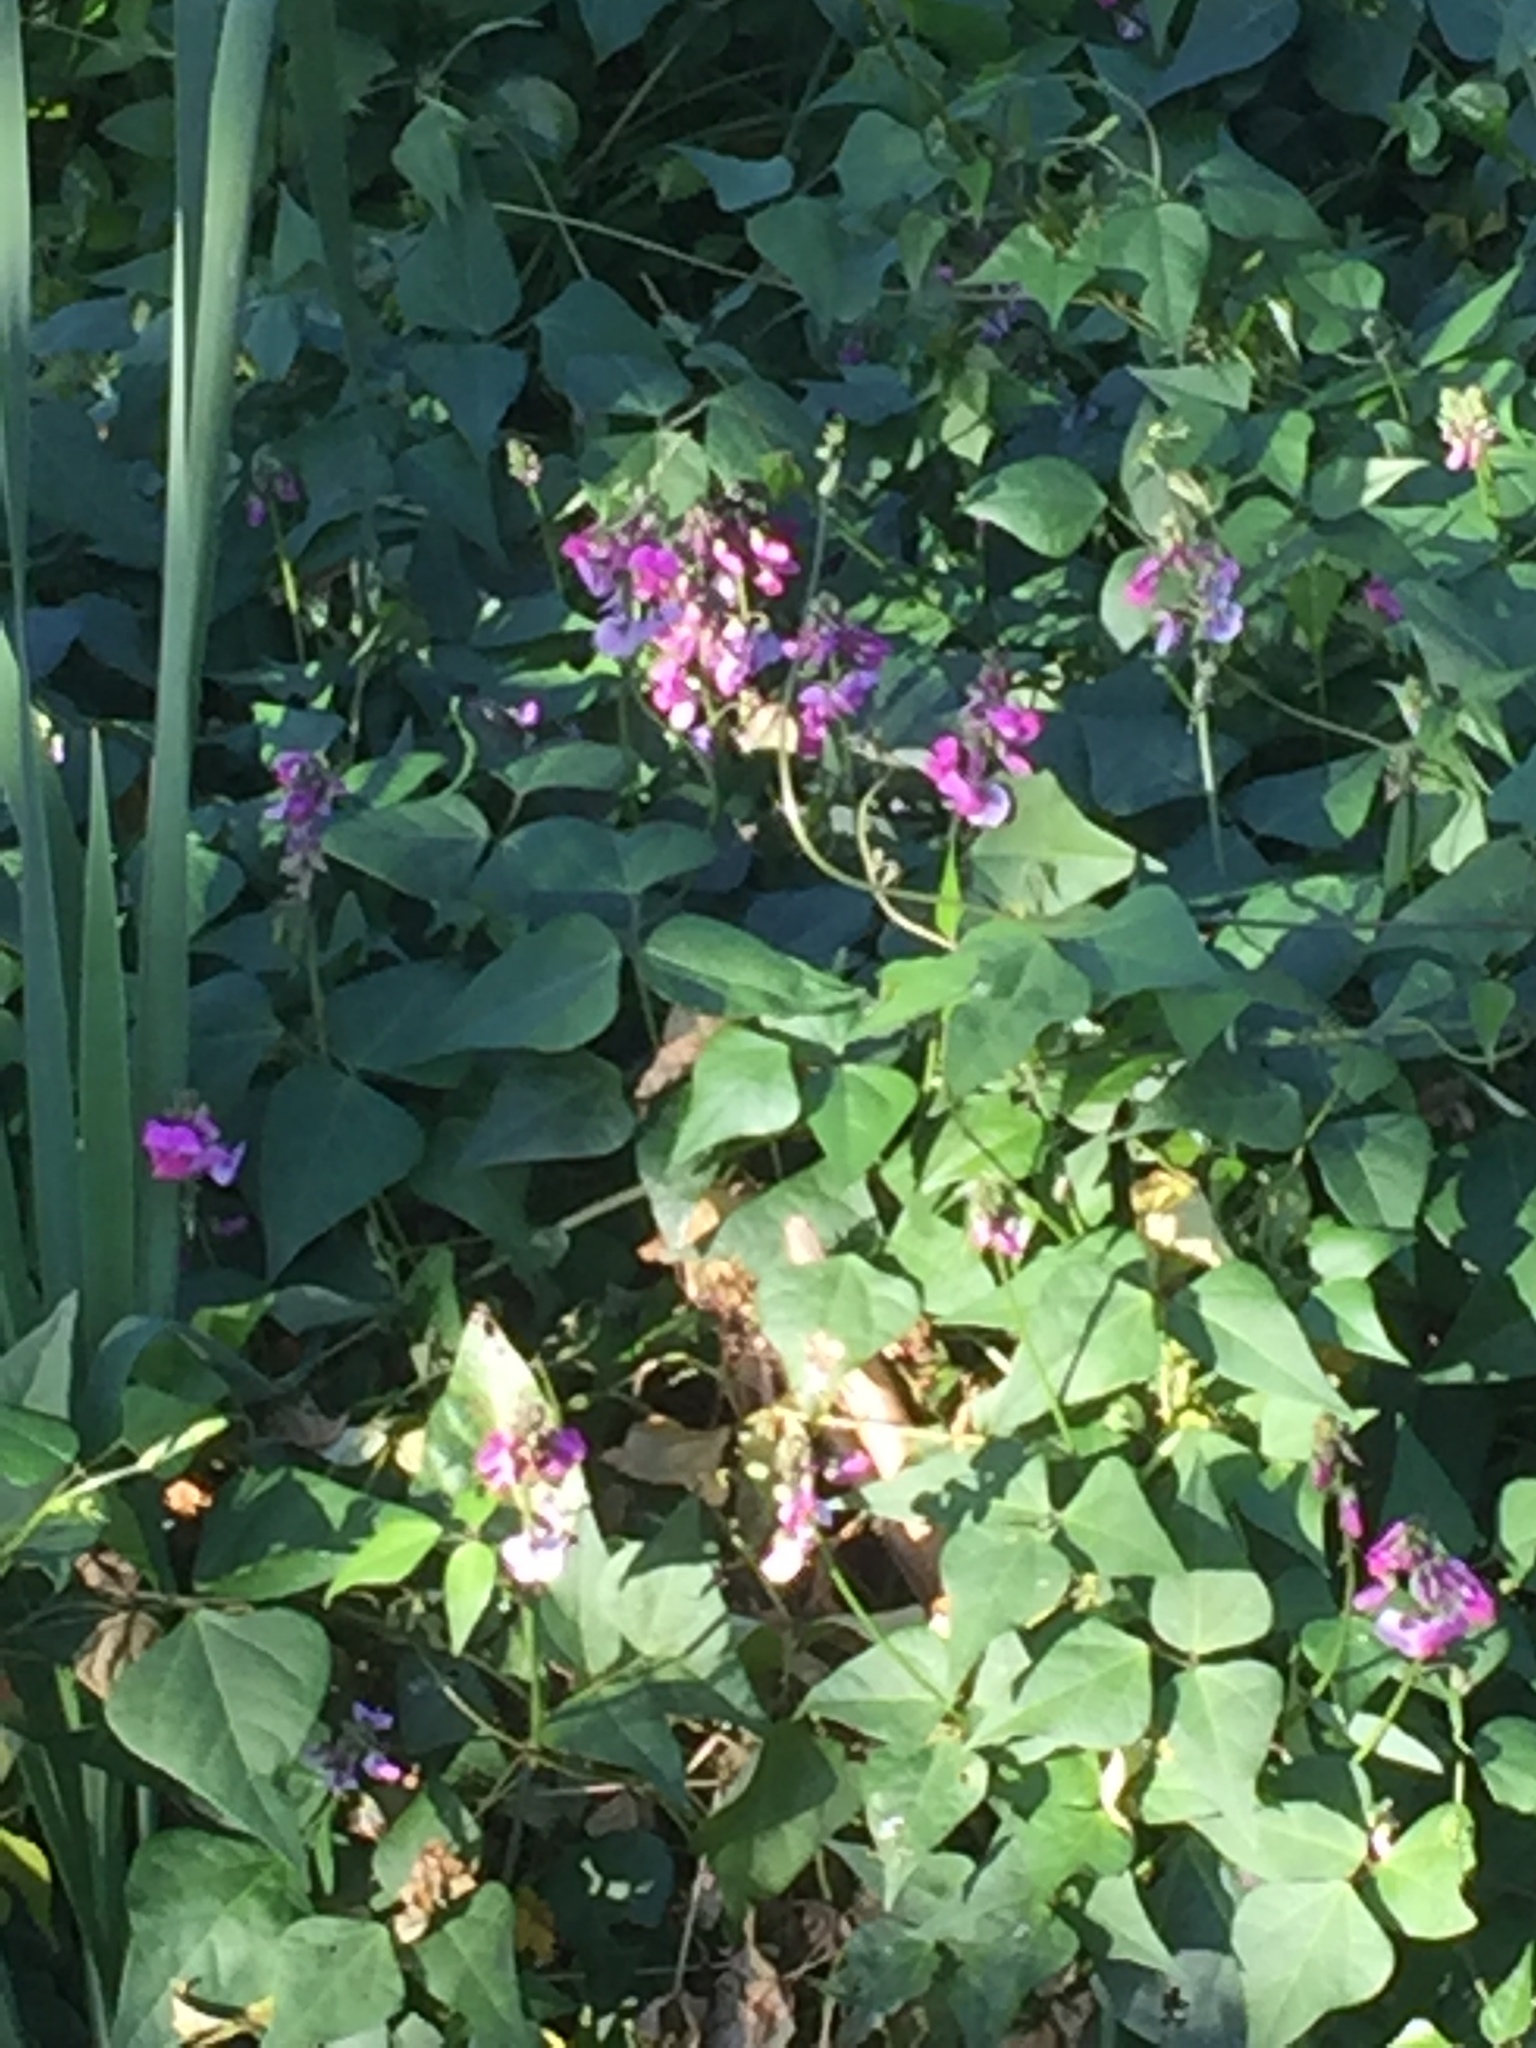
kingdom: Plantae
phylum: Tracheophyta
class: Magnoliopsida
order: Fabales
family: Fabaceae
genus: Dipogon
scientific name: Dipogon lignosus
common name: Okie bean
